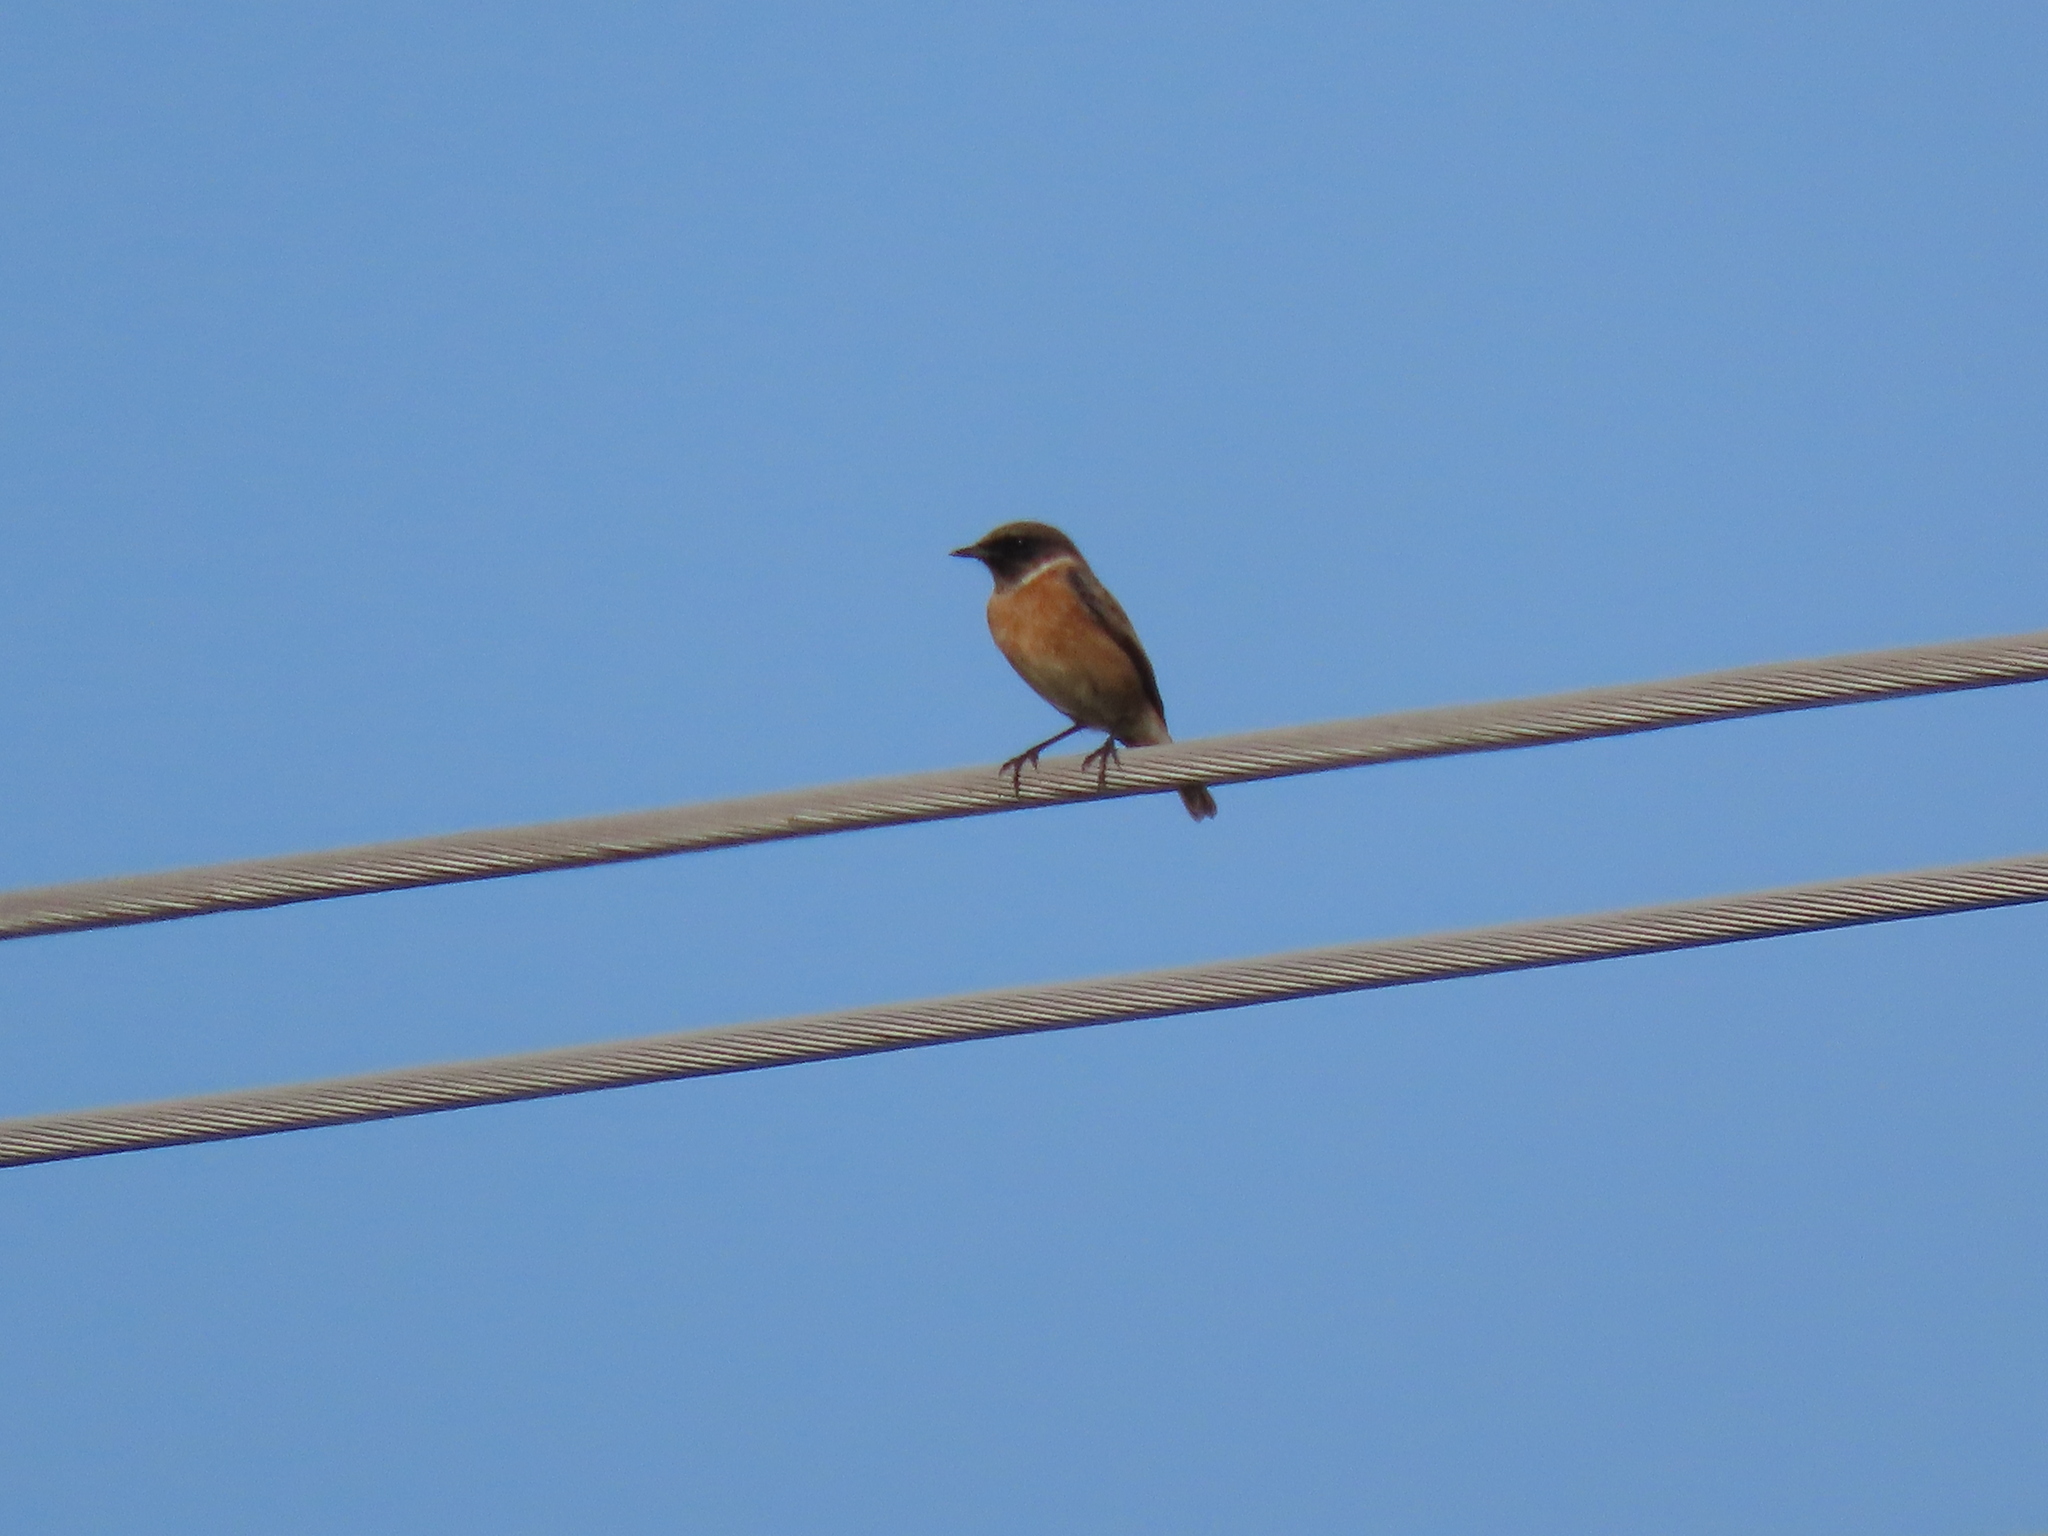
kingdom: Animalia
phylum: Chordata
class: Aves
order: Passeriformes
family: Muscicapidae
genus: Saxicola
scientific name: Saxicola rubicola
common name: European stonechat
